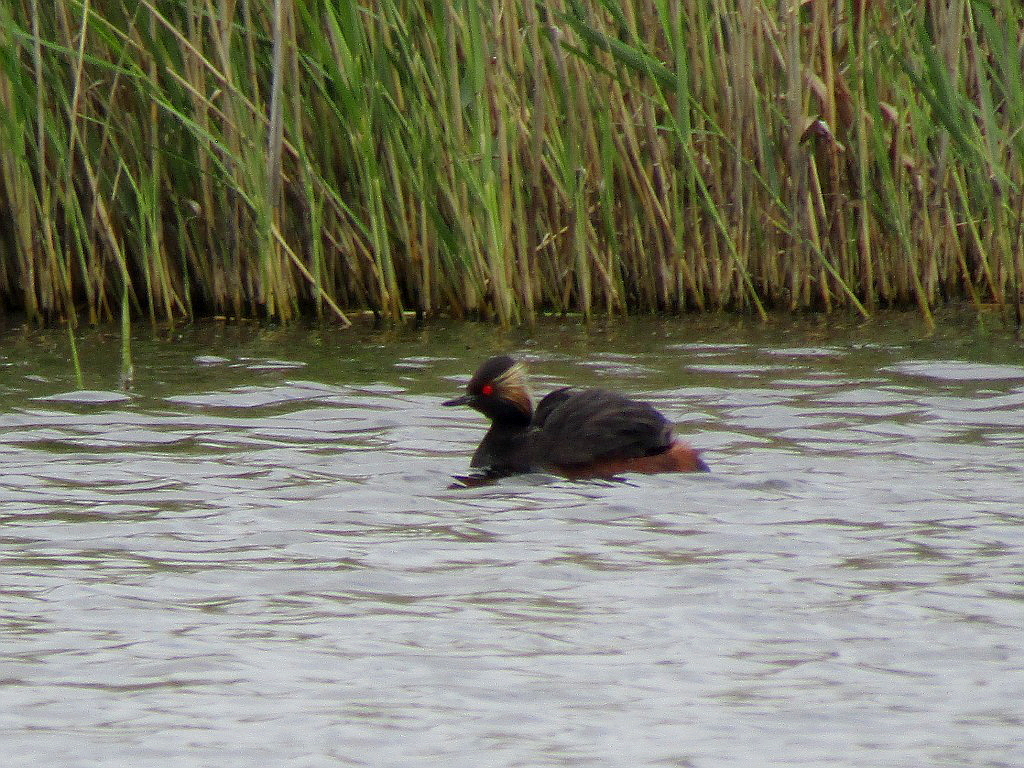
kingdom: Animalia
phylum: Chordata
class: Aves
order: Podicipediformes
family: Podicipedidae
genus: Podiceps
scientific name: Podiceps nigricollis
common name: Black-necked grebe
